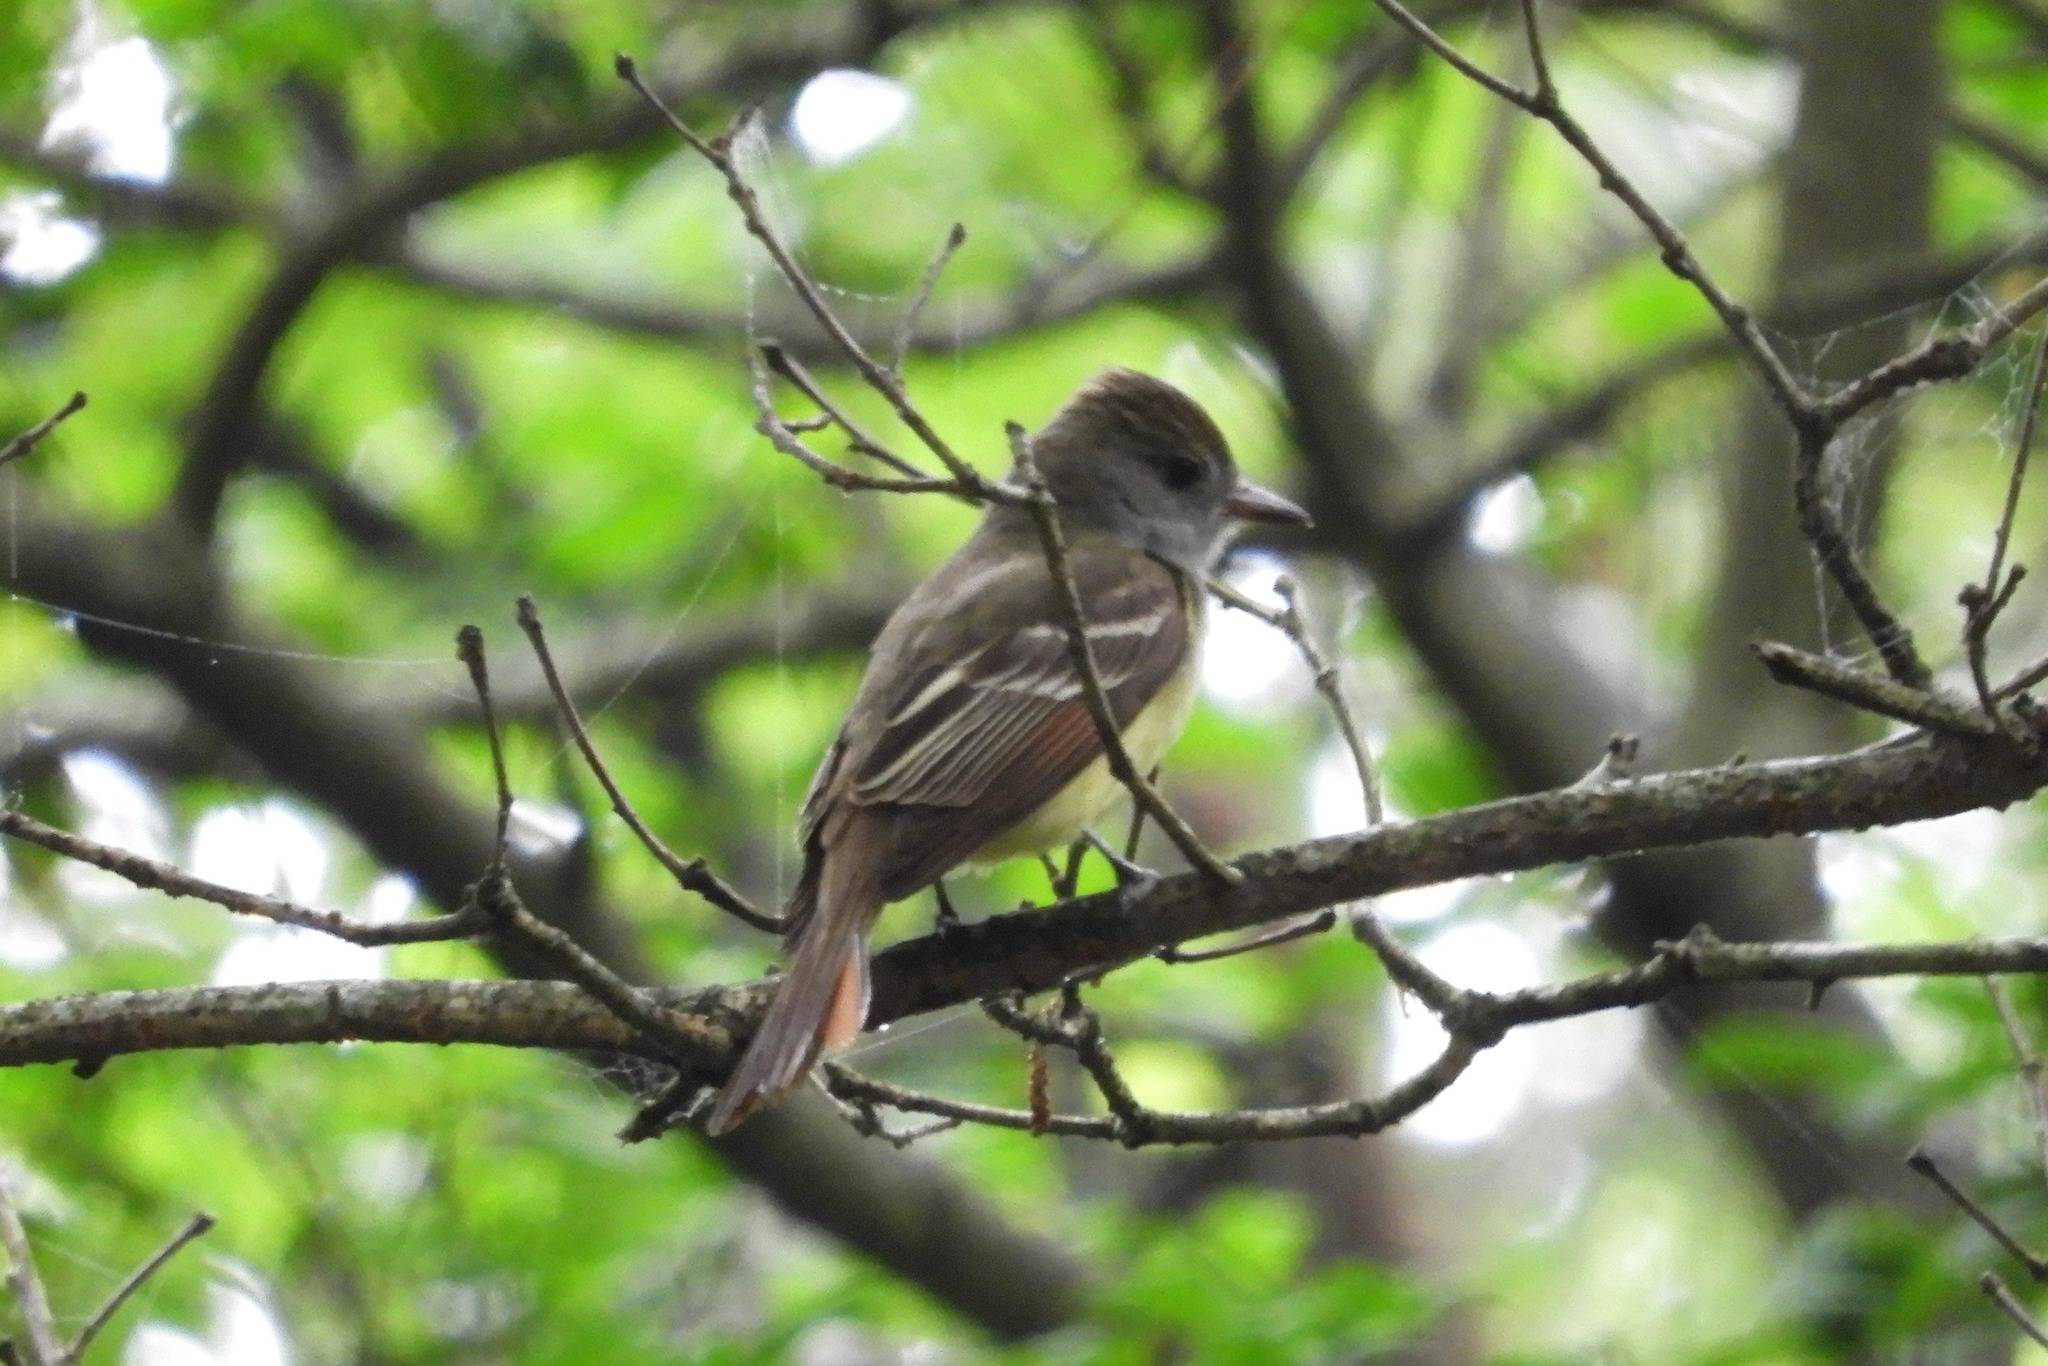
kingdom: Animalia
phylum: Chordata
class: Aves
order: Passeriformes
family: Tyrannidae
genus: Myiarchus
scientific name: Myiarchus crinitus
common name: Great crested flycatcher
